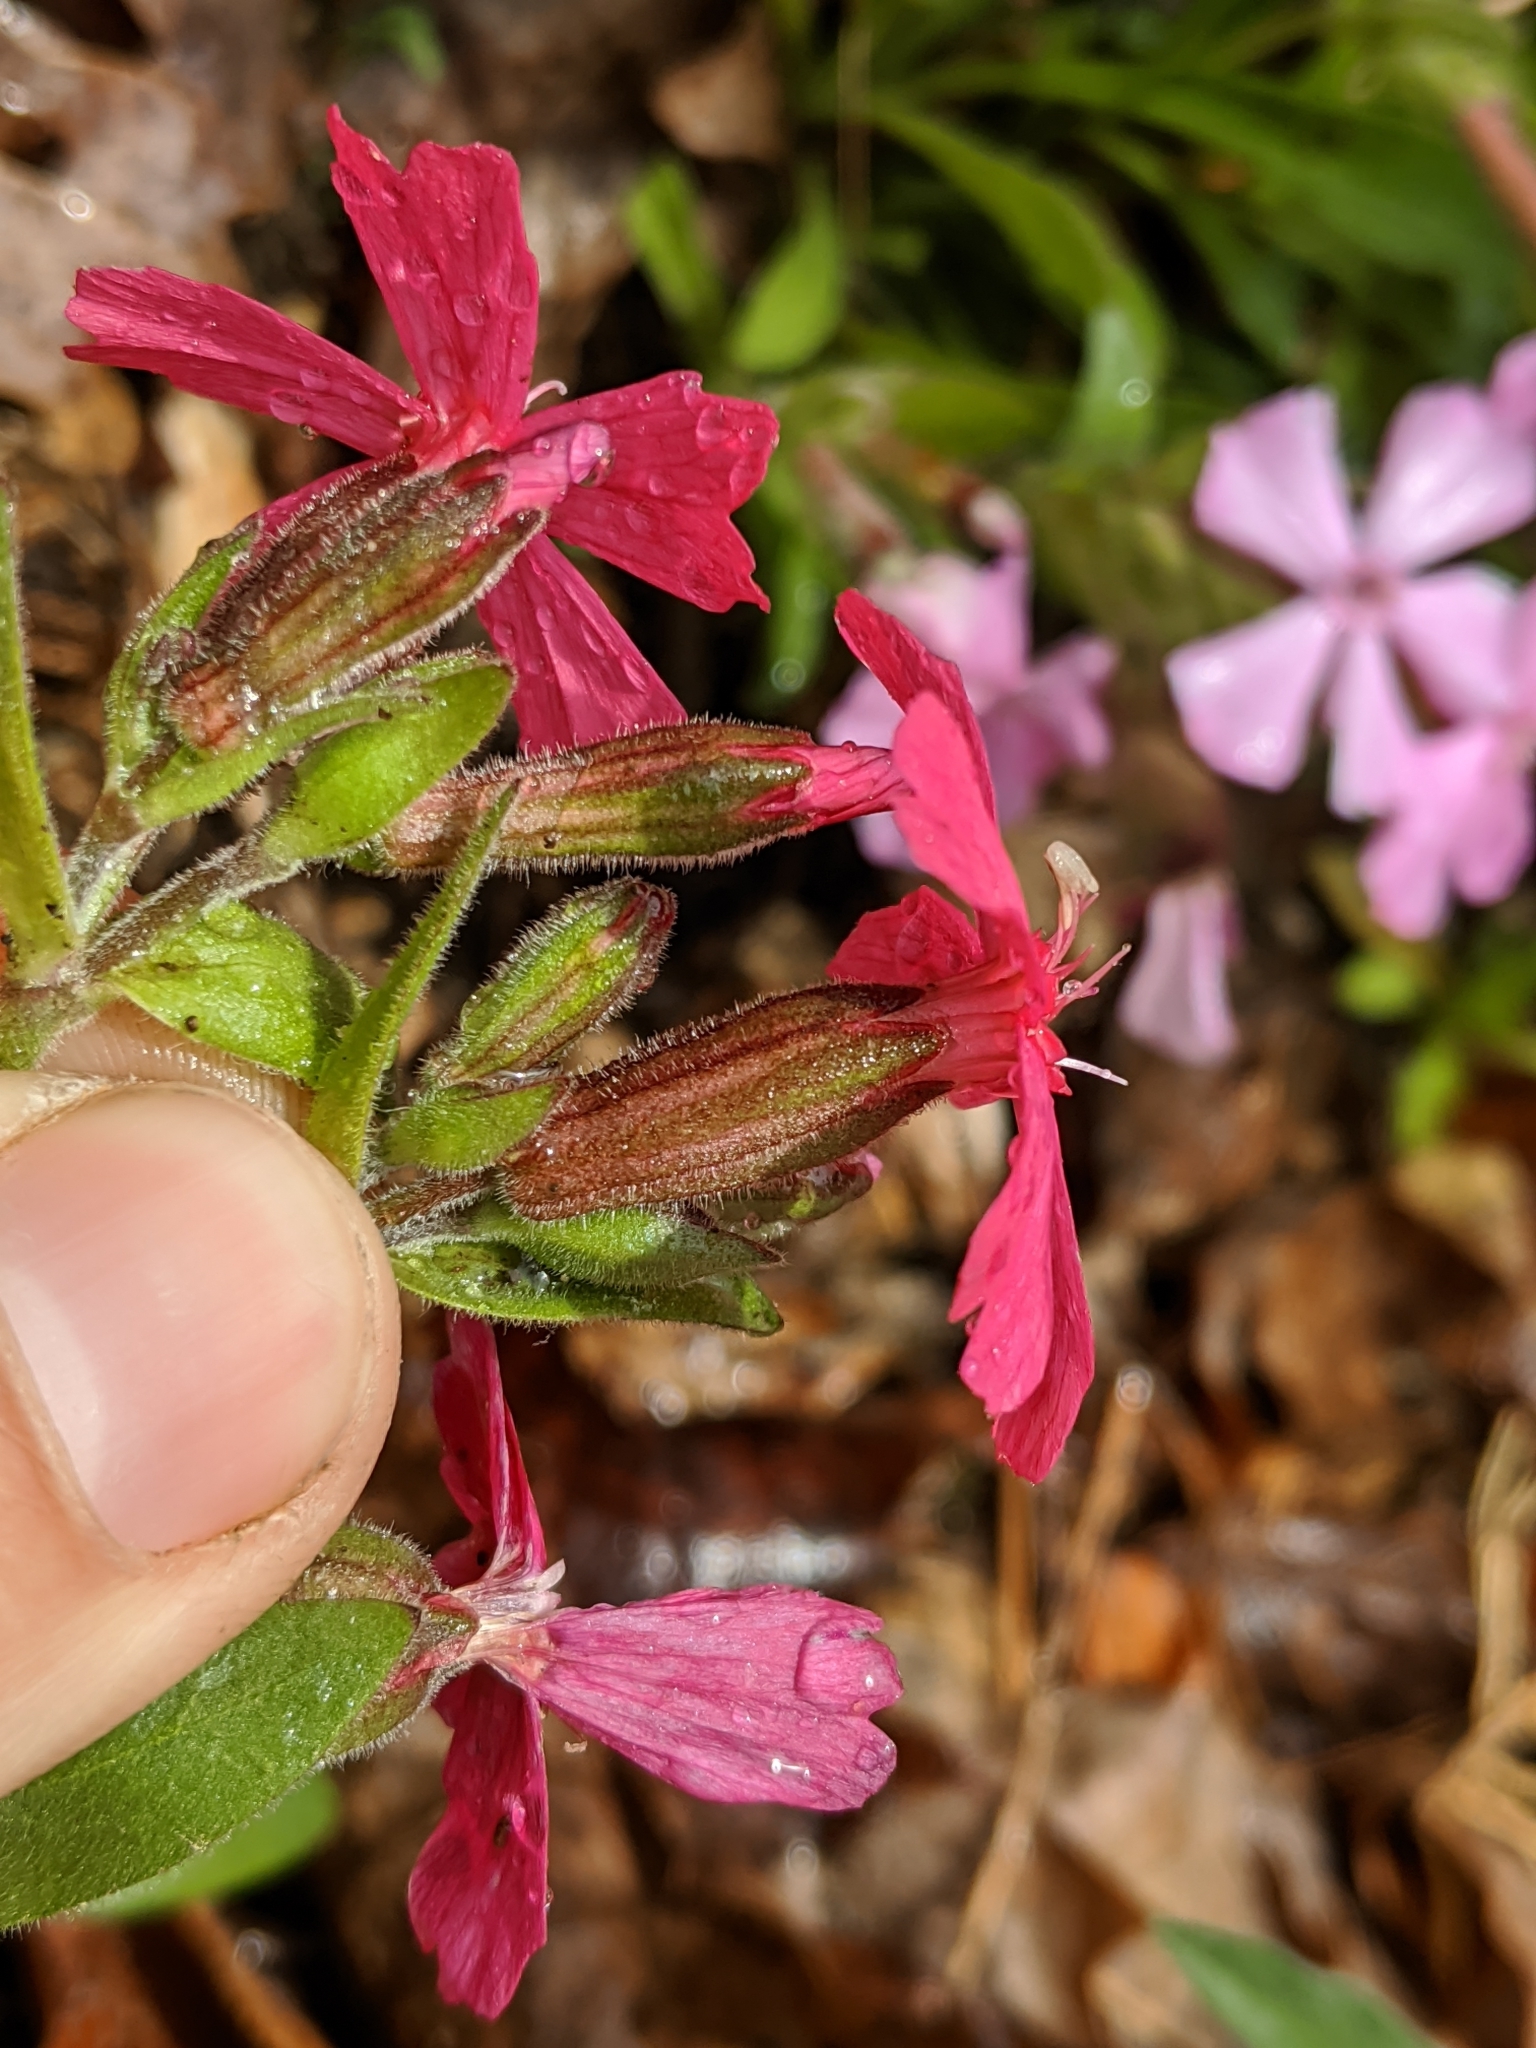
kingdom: Plantae
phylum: Tracheophyta
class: Magnoliopsida
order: Caryophyllales
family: Caryophyllaceae
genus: Silene
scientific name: Silene caroliniana
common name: Sticky catchfly
